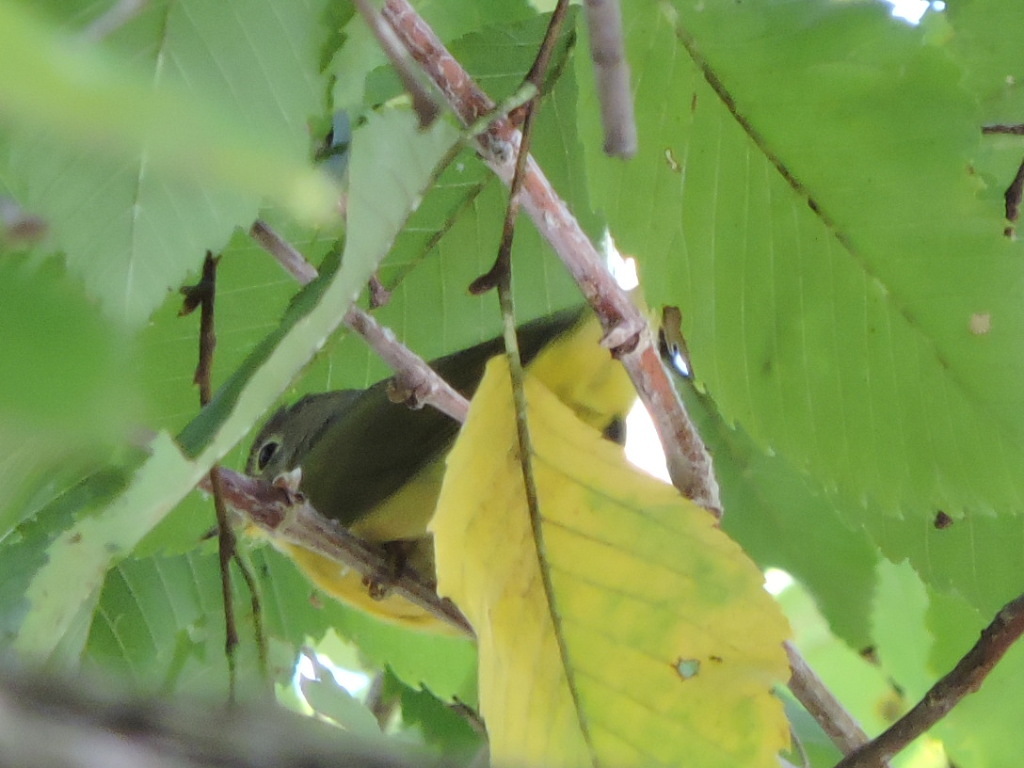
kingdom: Animalia
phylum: Chordata
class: Aves
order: Passeriformes
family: Parulidae
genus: Leiothlypis
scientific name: Leiothlypis ruficapilla
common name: Nashville warbler
